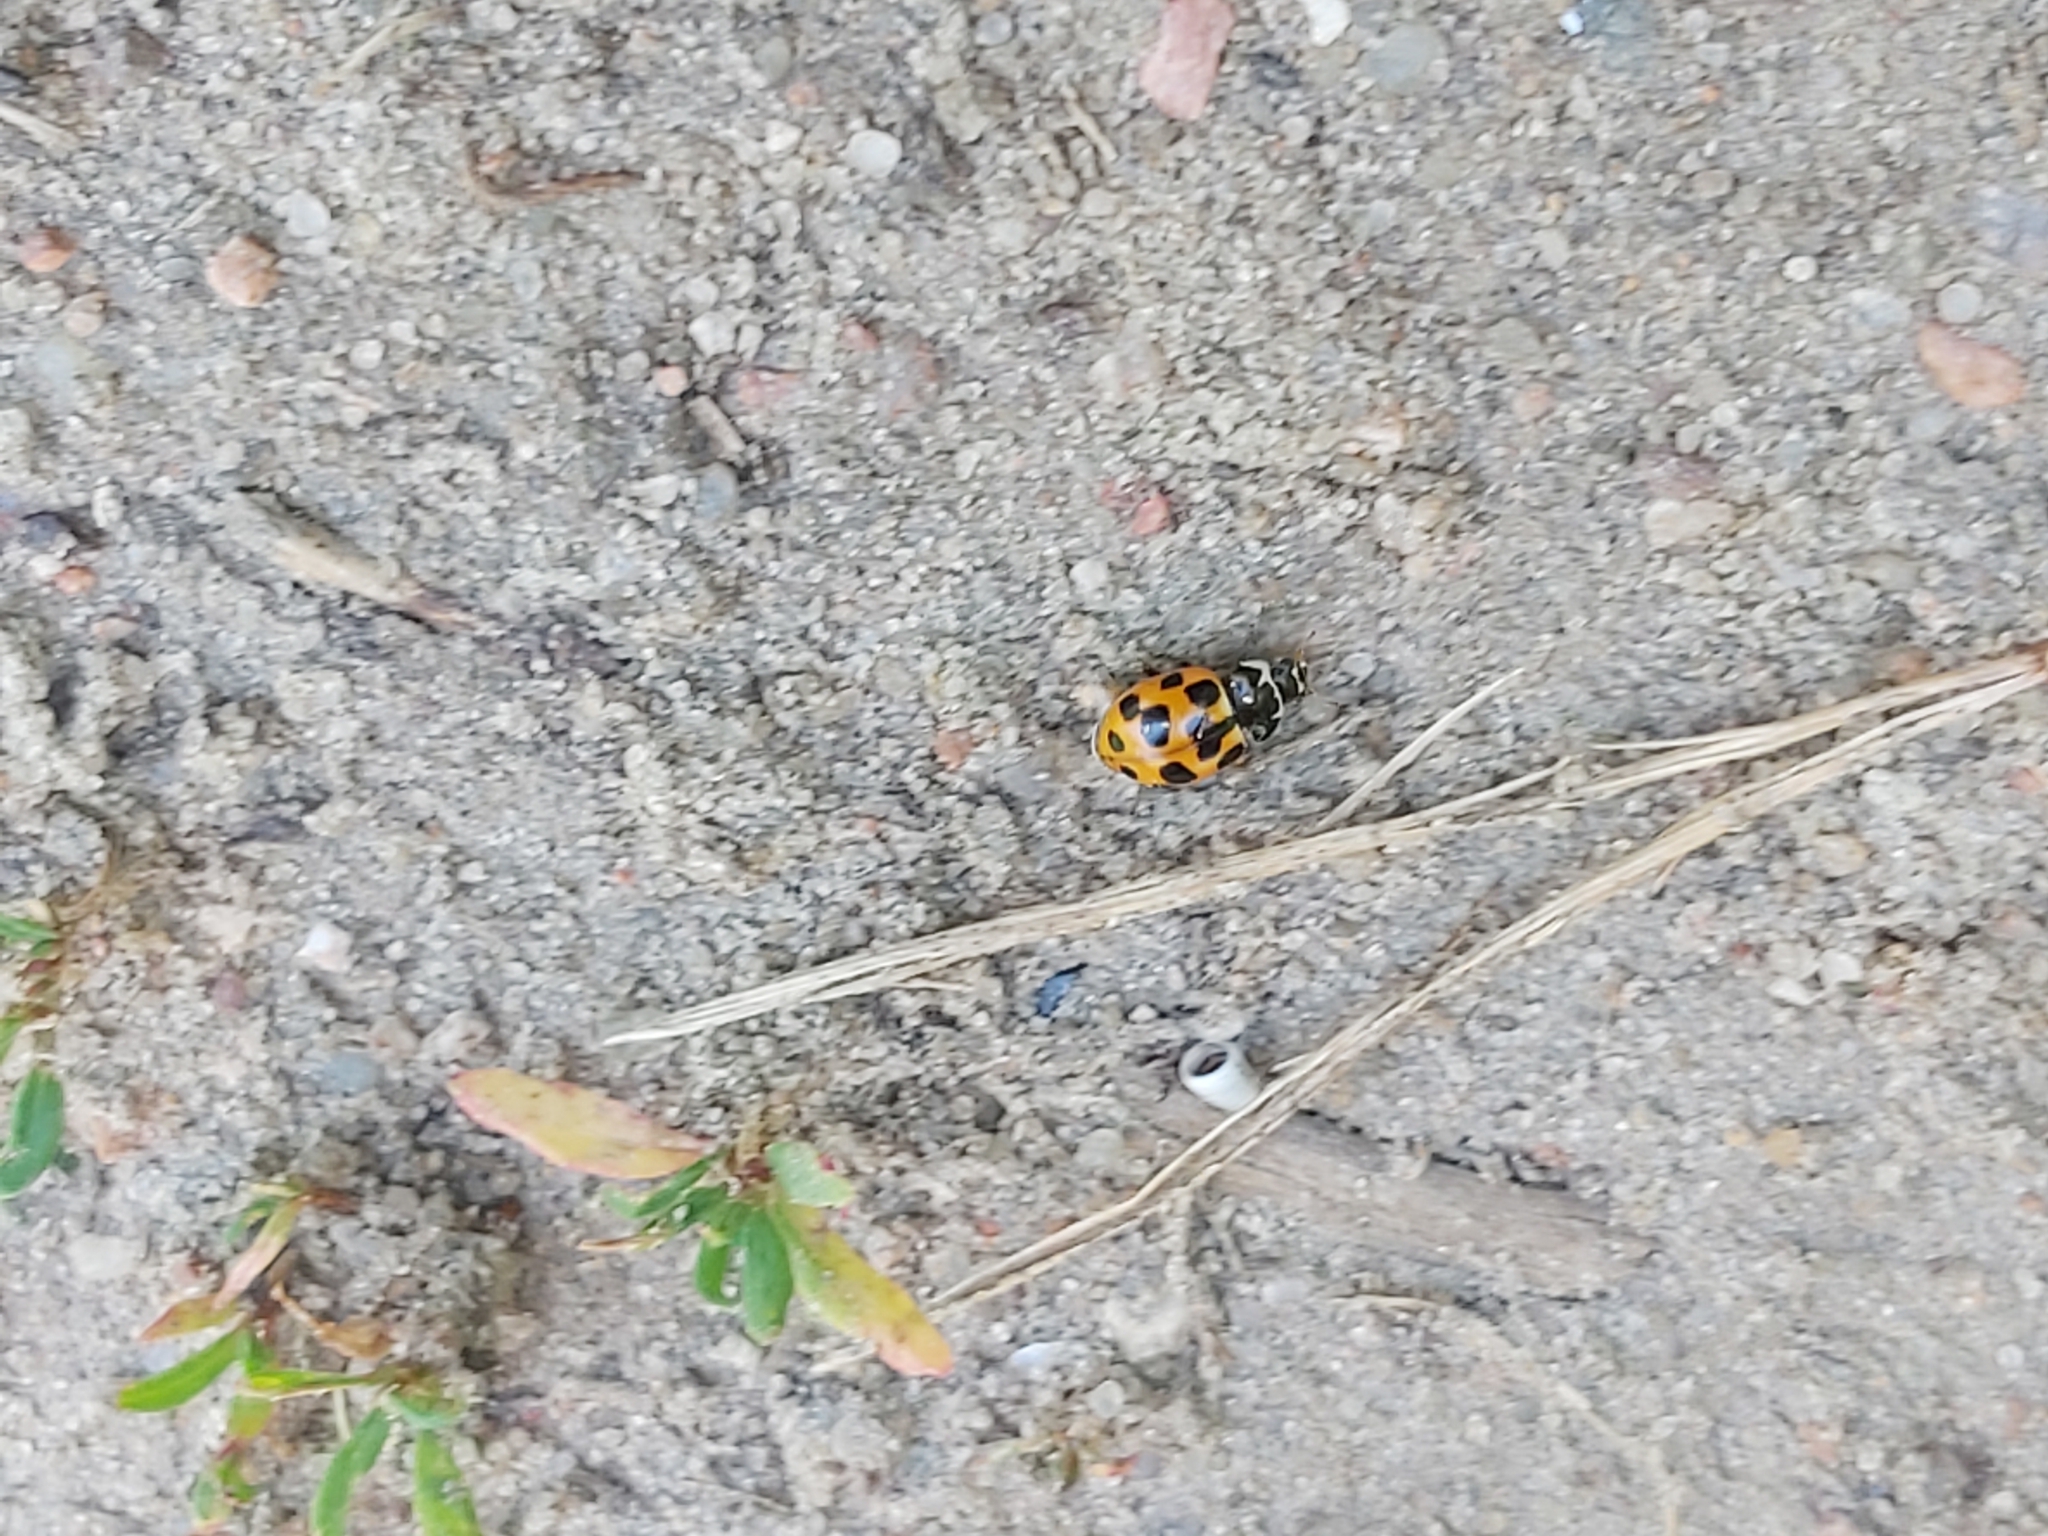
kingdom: Animalia
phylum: Arthropoda
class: Insecta
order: Coleoptera
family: Coccinellidae
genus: Ceratomegilla
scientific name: Ceratomegilla notata
